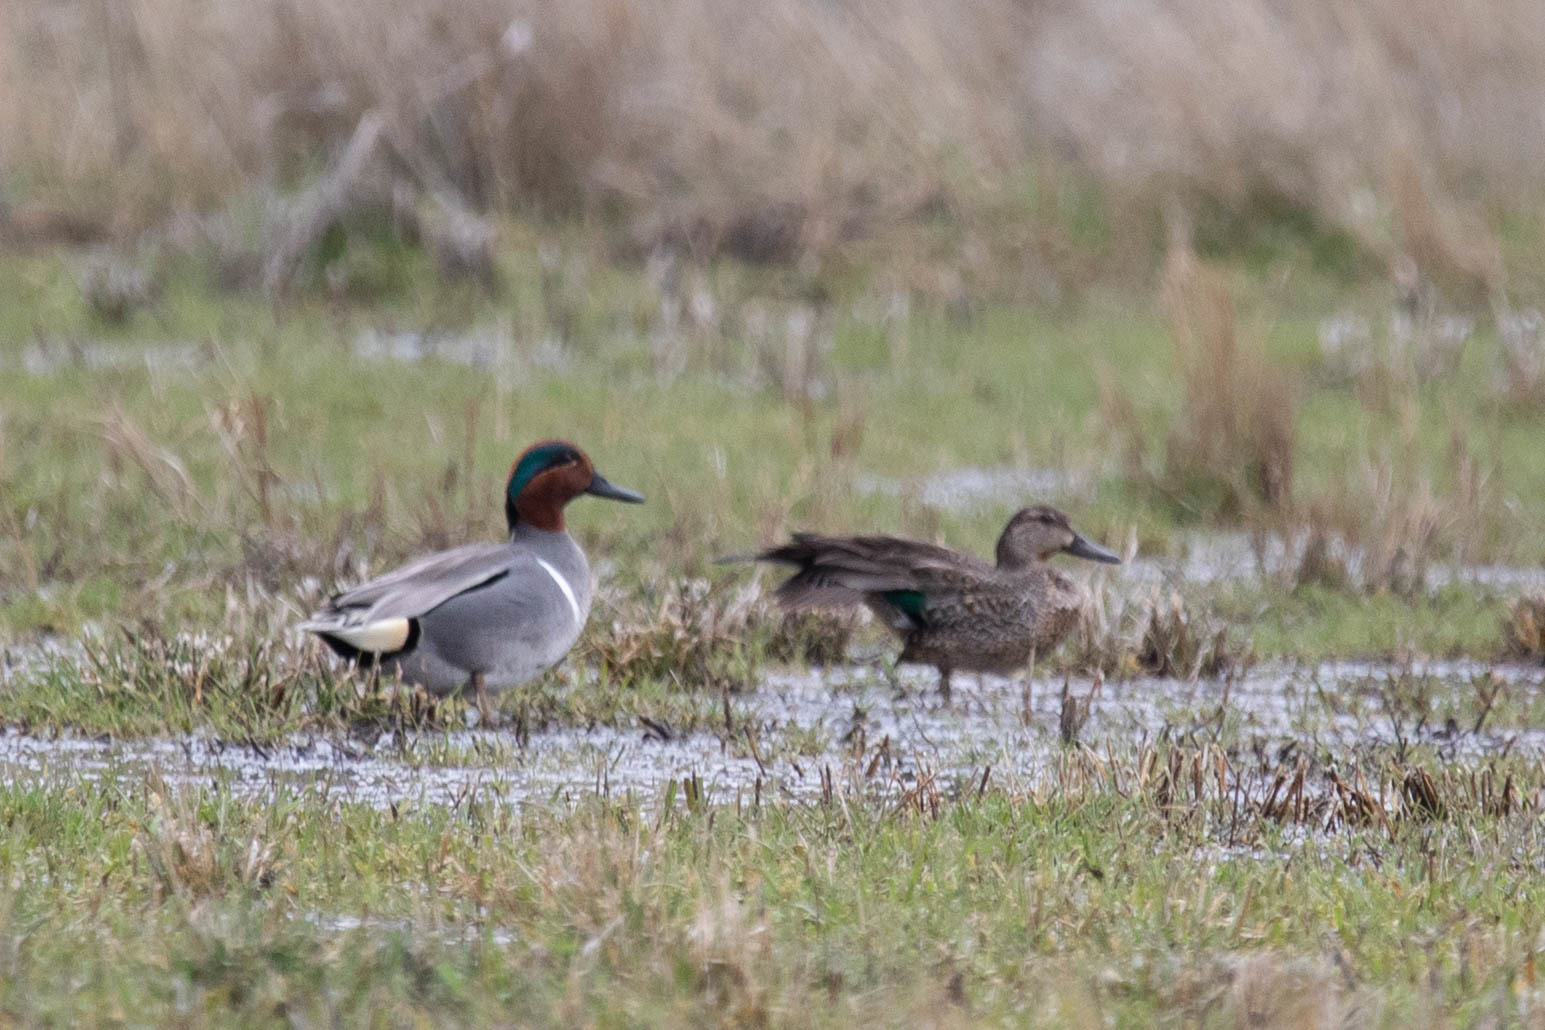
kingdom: Animalia
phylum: Chordata
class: Aves
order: Anseriformes
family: Anatidae
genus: Anas
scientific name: Anas carolinensis
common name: Green-winged teal
